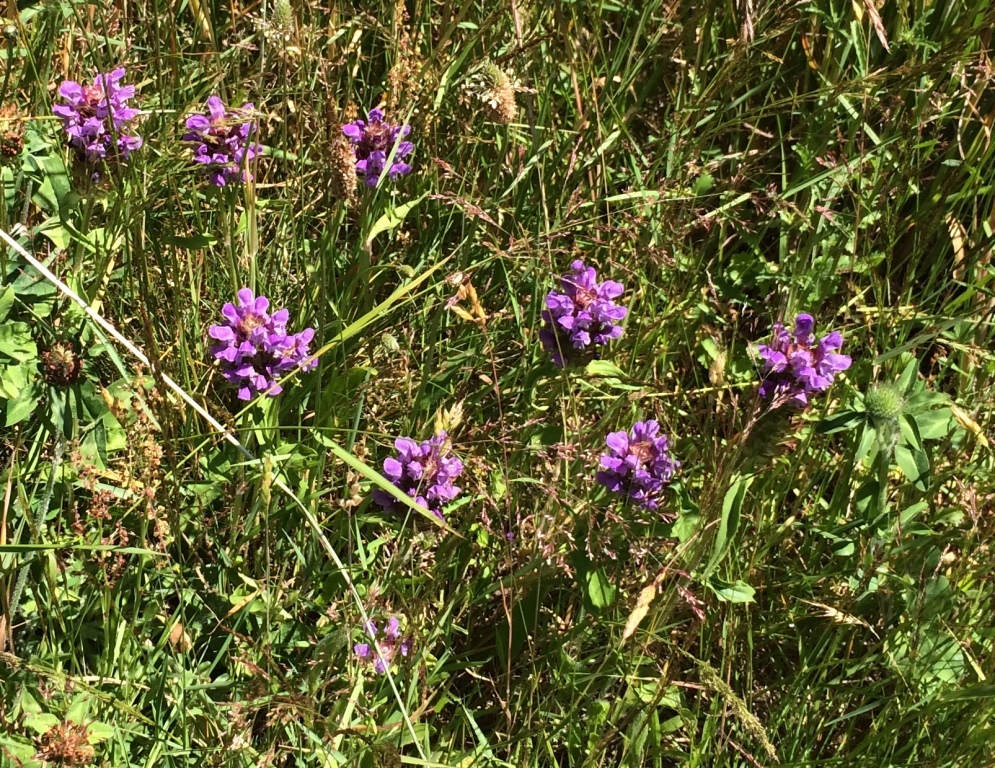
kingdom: Plantae
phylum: Tracheophyta
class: Magnoliopsida
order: Lamiales
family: Lamiaceae
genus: Prunella
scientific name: Prunella vulgaris
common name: Heal-all
